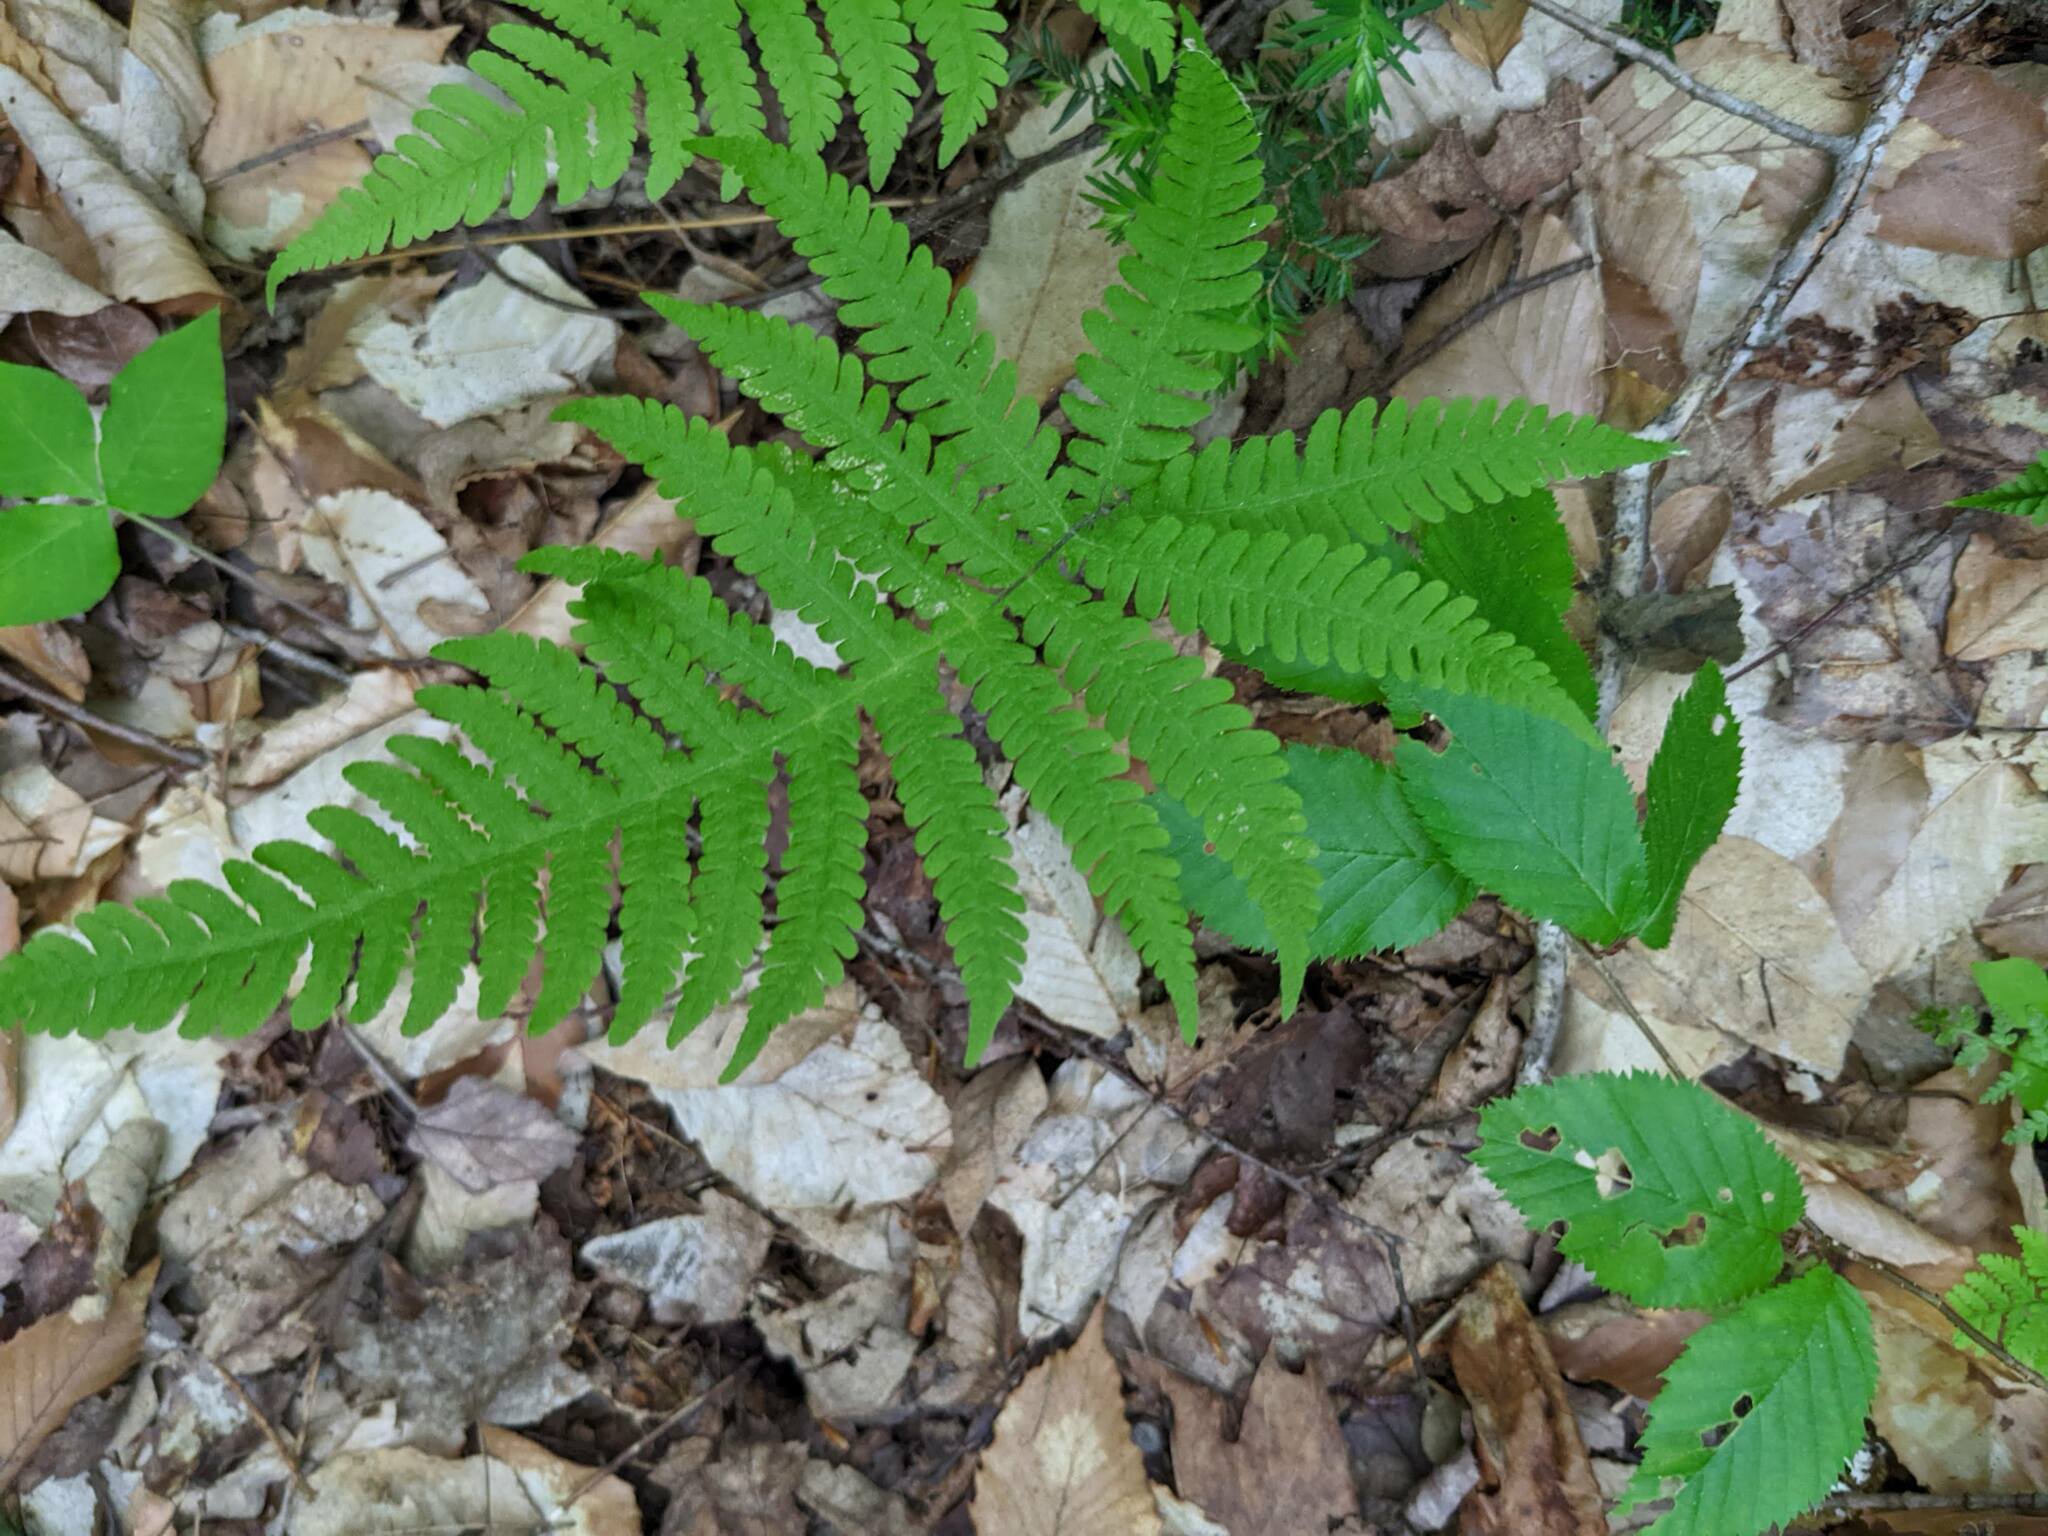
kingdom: Plantae
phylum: Tracheophyta
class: Polypodiopsida
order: Polypodiales
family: Thelypteridaceae
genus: Phegopteris
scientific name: Phegopteris connectilis
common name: Beech fern
